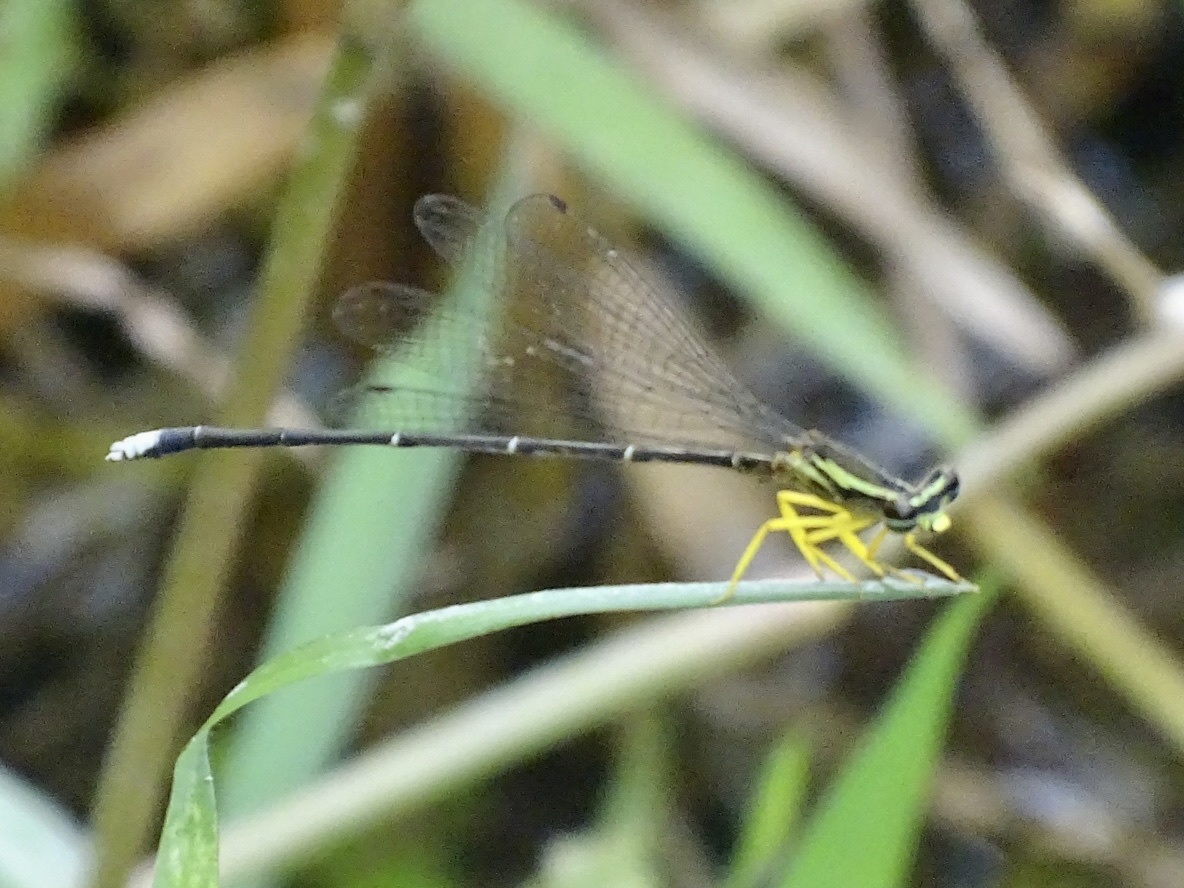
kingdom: Animalia
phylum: Arthropoda
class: Insecta
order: Odonata
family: Platycnemididae
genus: Copera
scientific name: Copera marginipes
